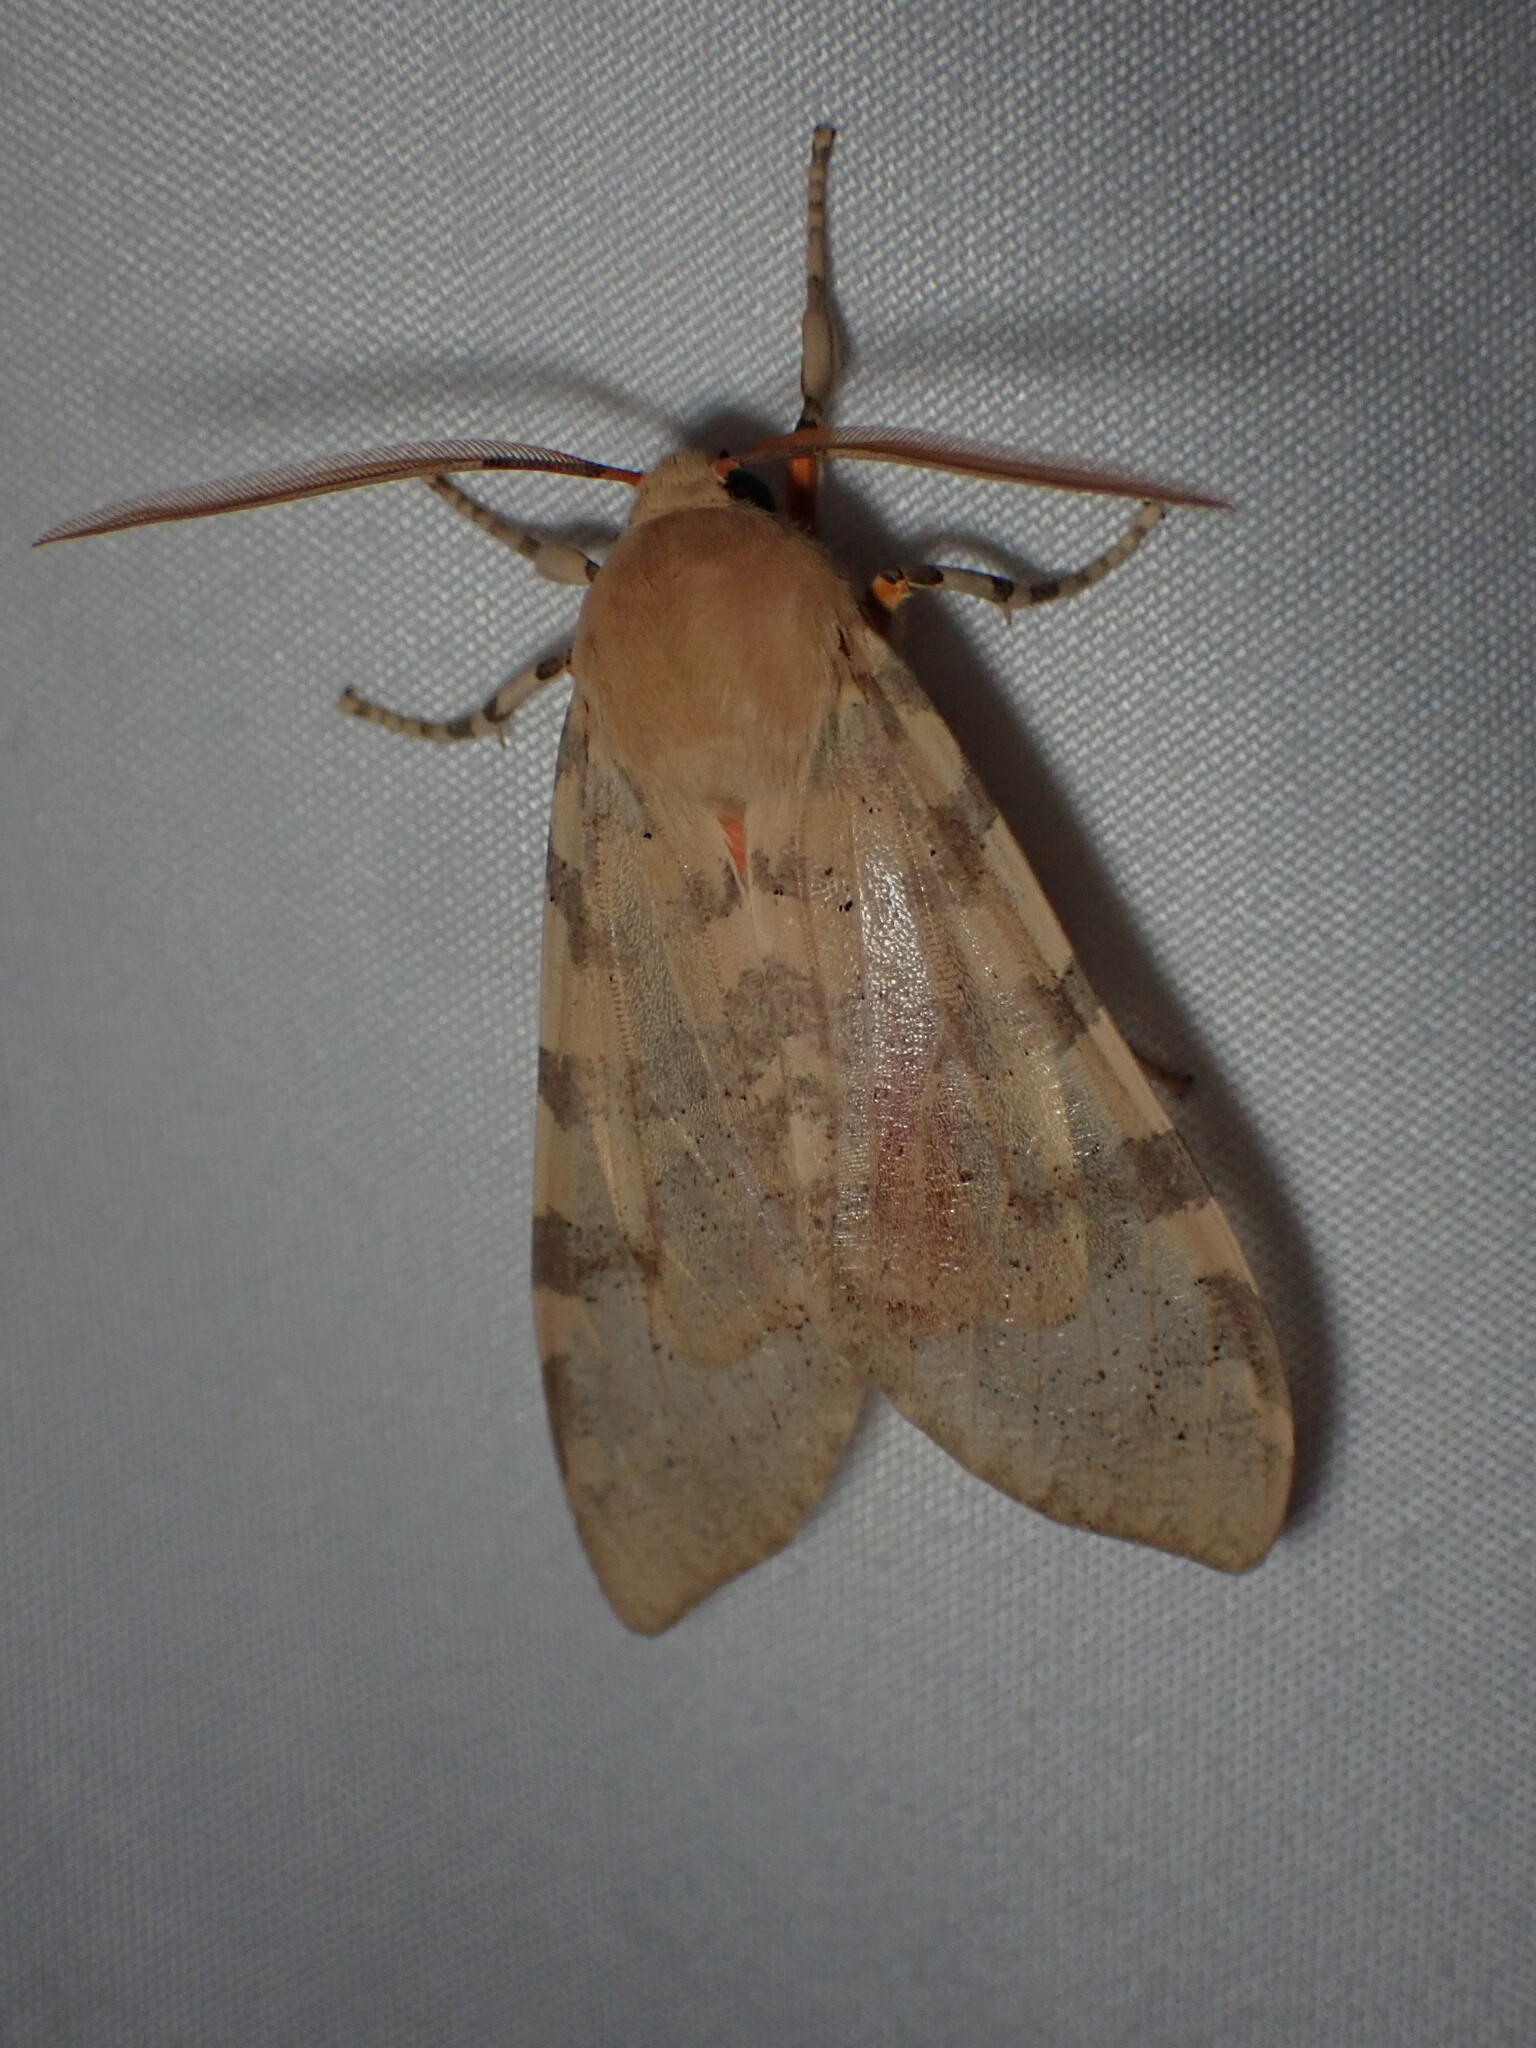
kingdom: Animalia
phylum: Arthropoda
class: Insecta
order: Lepidoptera
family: Erebidae
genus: Hemihyalea
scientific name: Hemihyalea edwardsii
